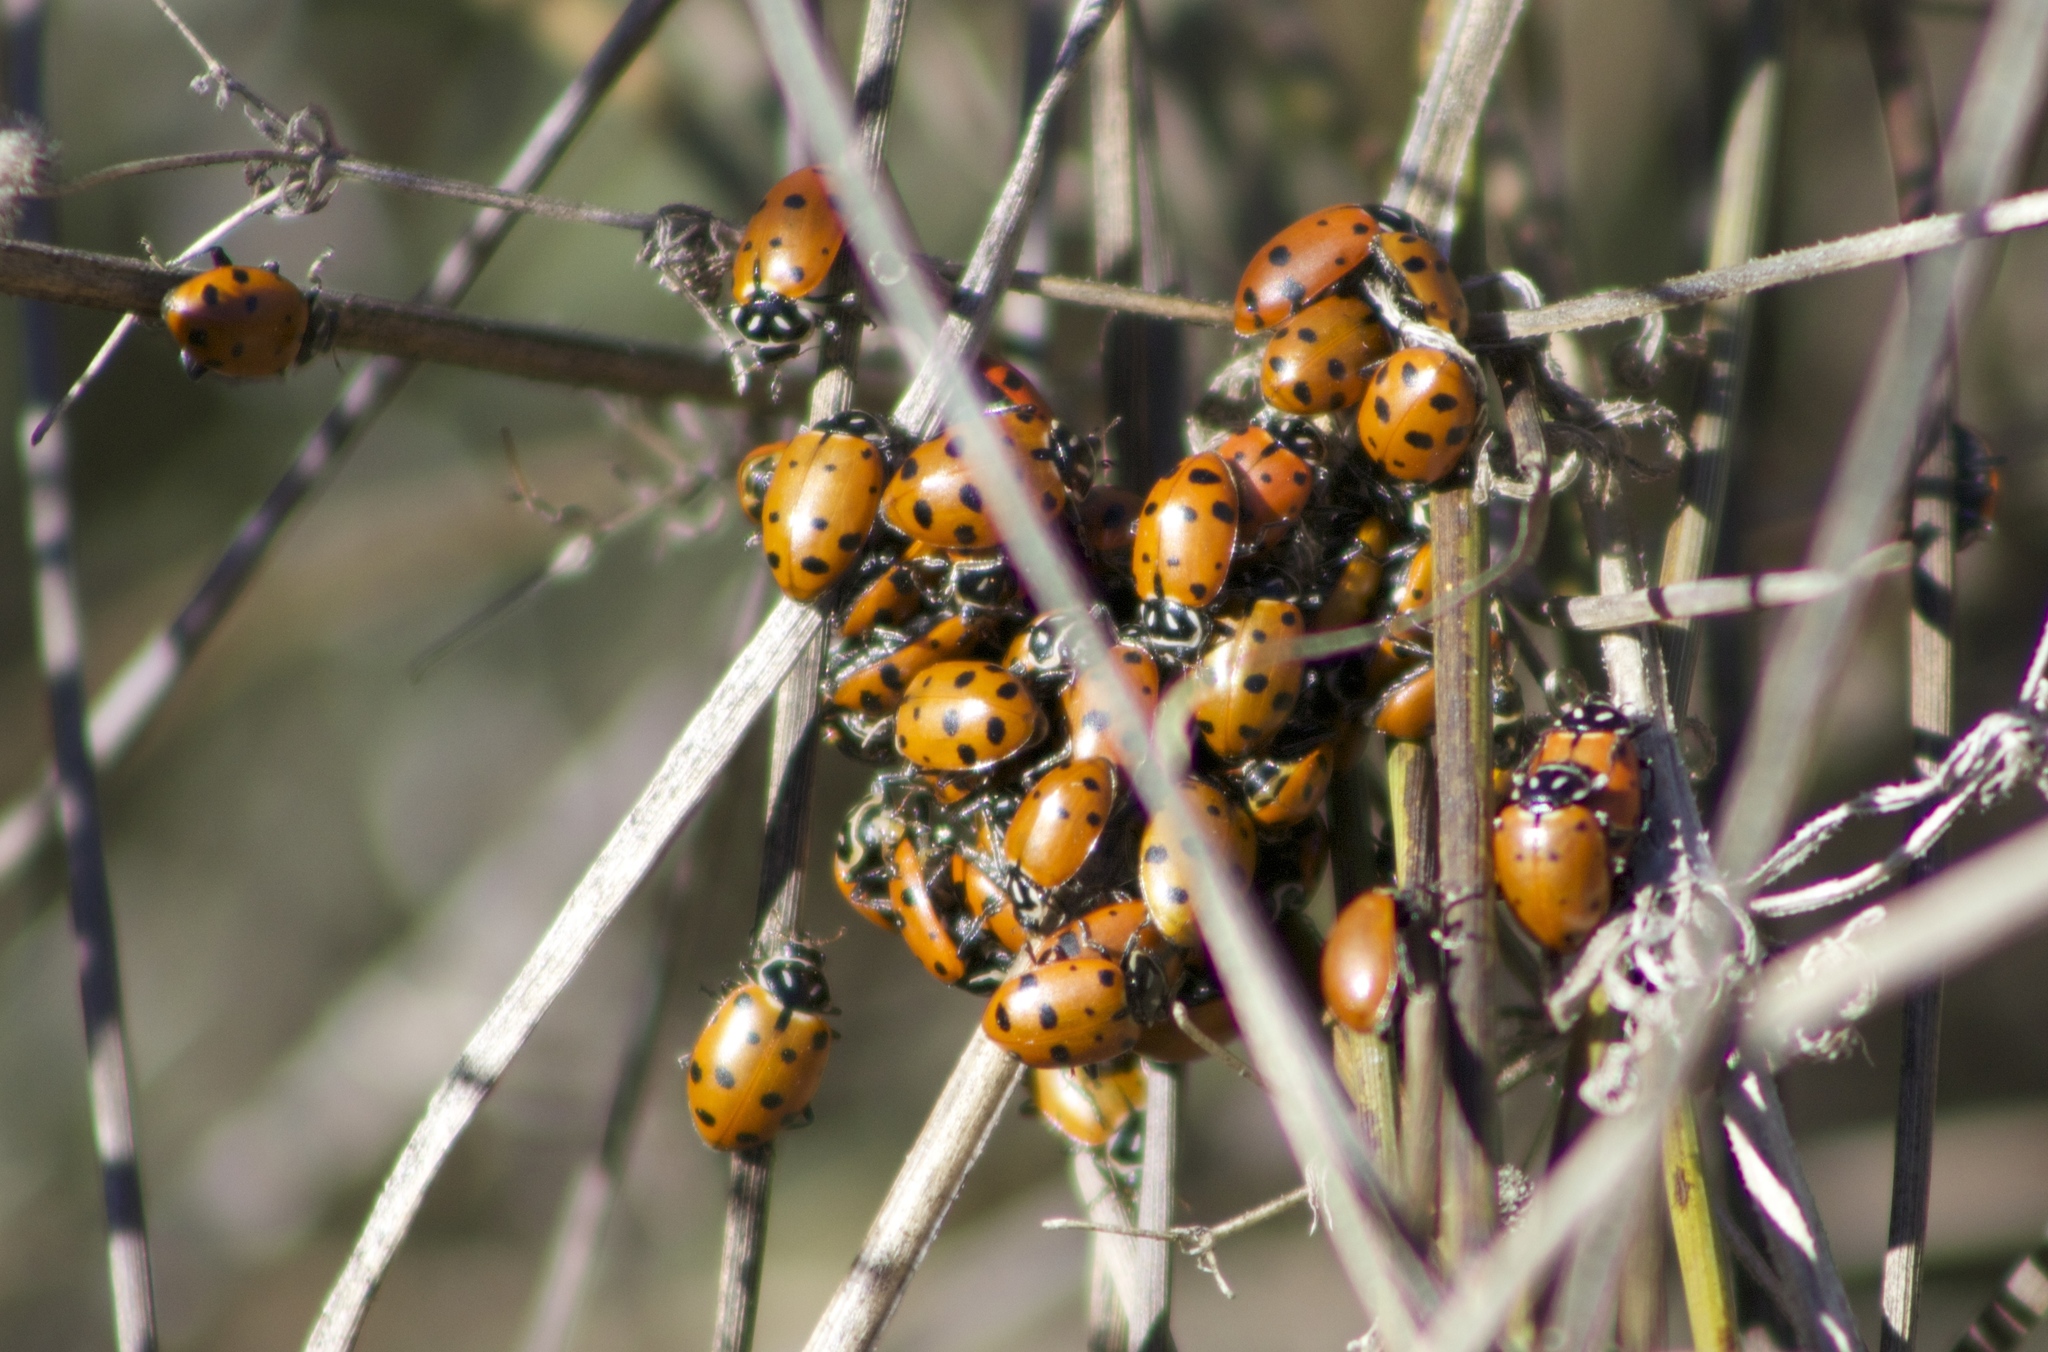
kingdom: Animalia
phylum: Arthropoda
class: Insecta
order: Coleoptera
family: Coccinellidae
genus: Hippodamia
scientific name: Hippodamia convergens
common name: Convergent lady beetle
